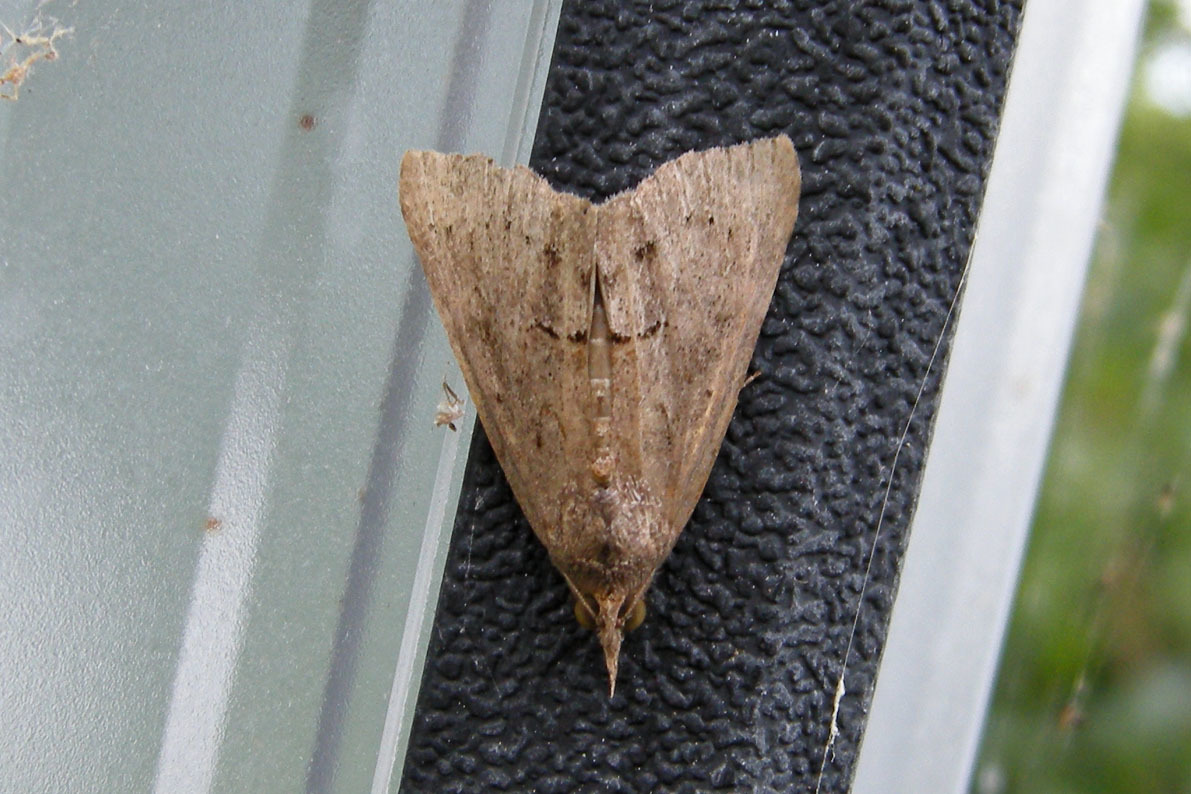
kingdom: Animalia
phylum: Arthropoda
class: Insecta
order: Lepidoptera
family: Erebidae
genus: Hypena
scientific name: Hypena scabra
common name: Green cloverworm
